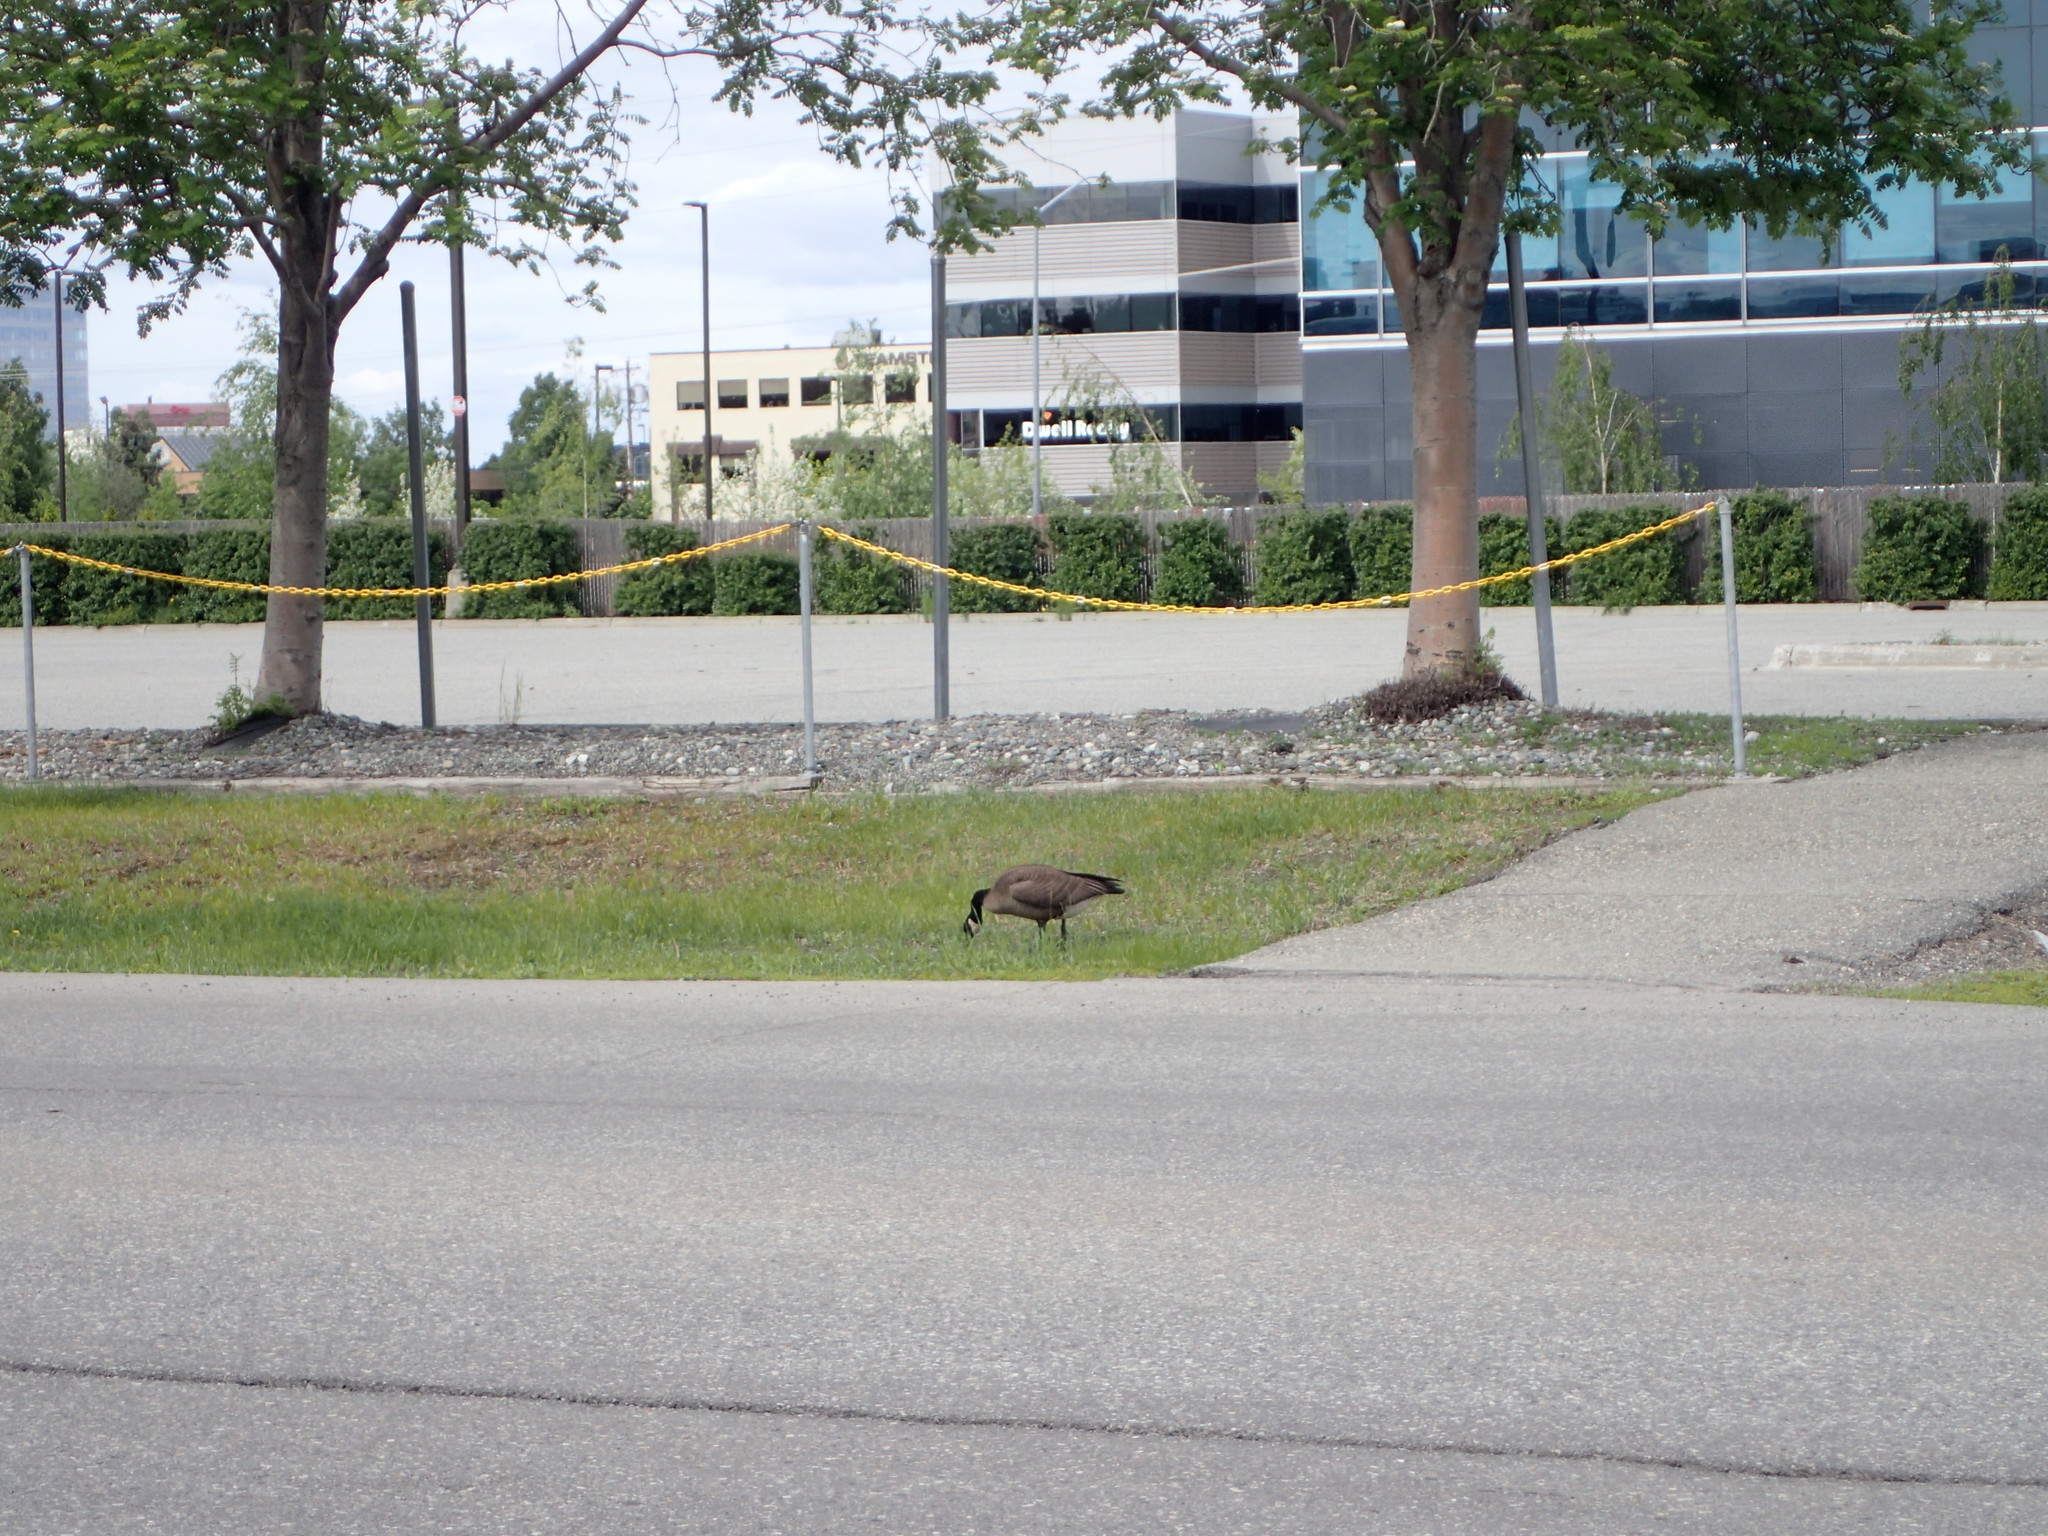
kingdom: Animalia
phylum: Chordata
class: Aves
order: Anseriformes
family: Anatidae
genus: Branta
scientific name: Branta canadensis
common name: Canada goose
